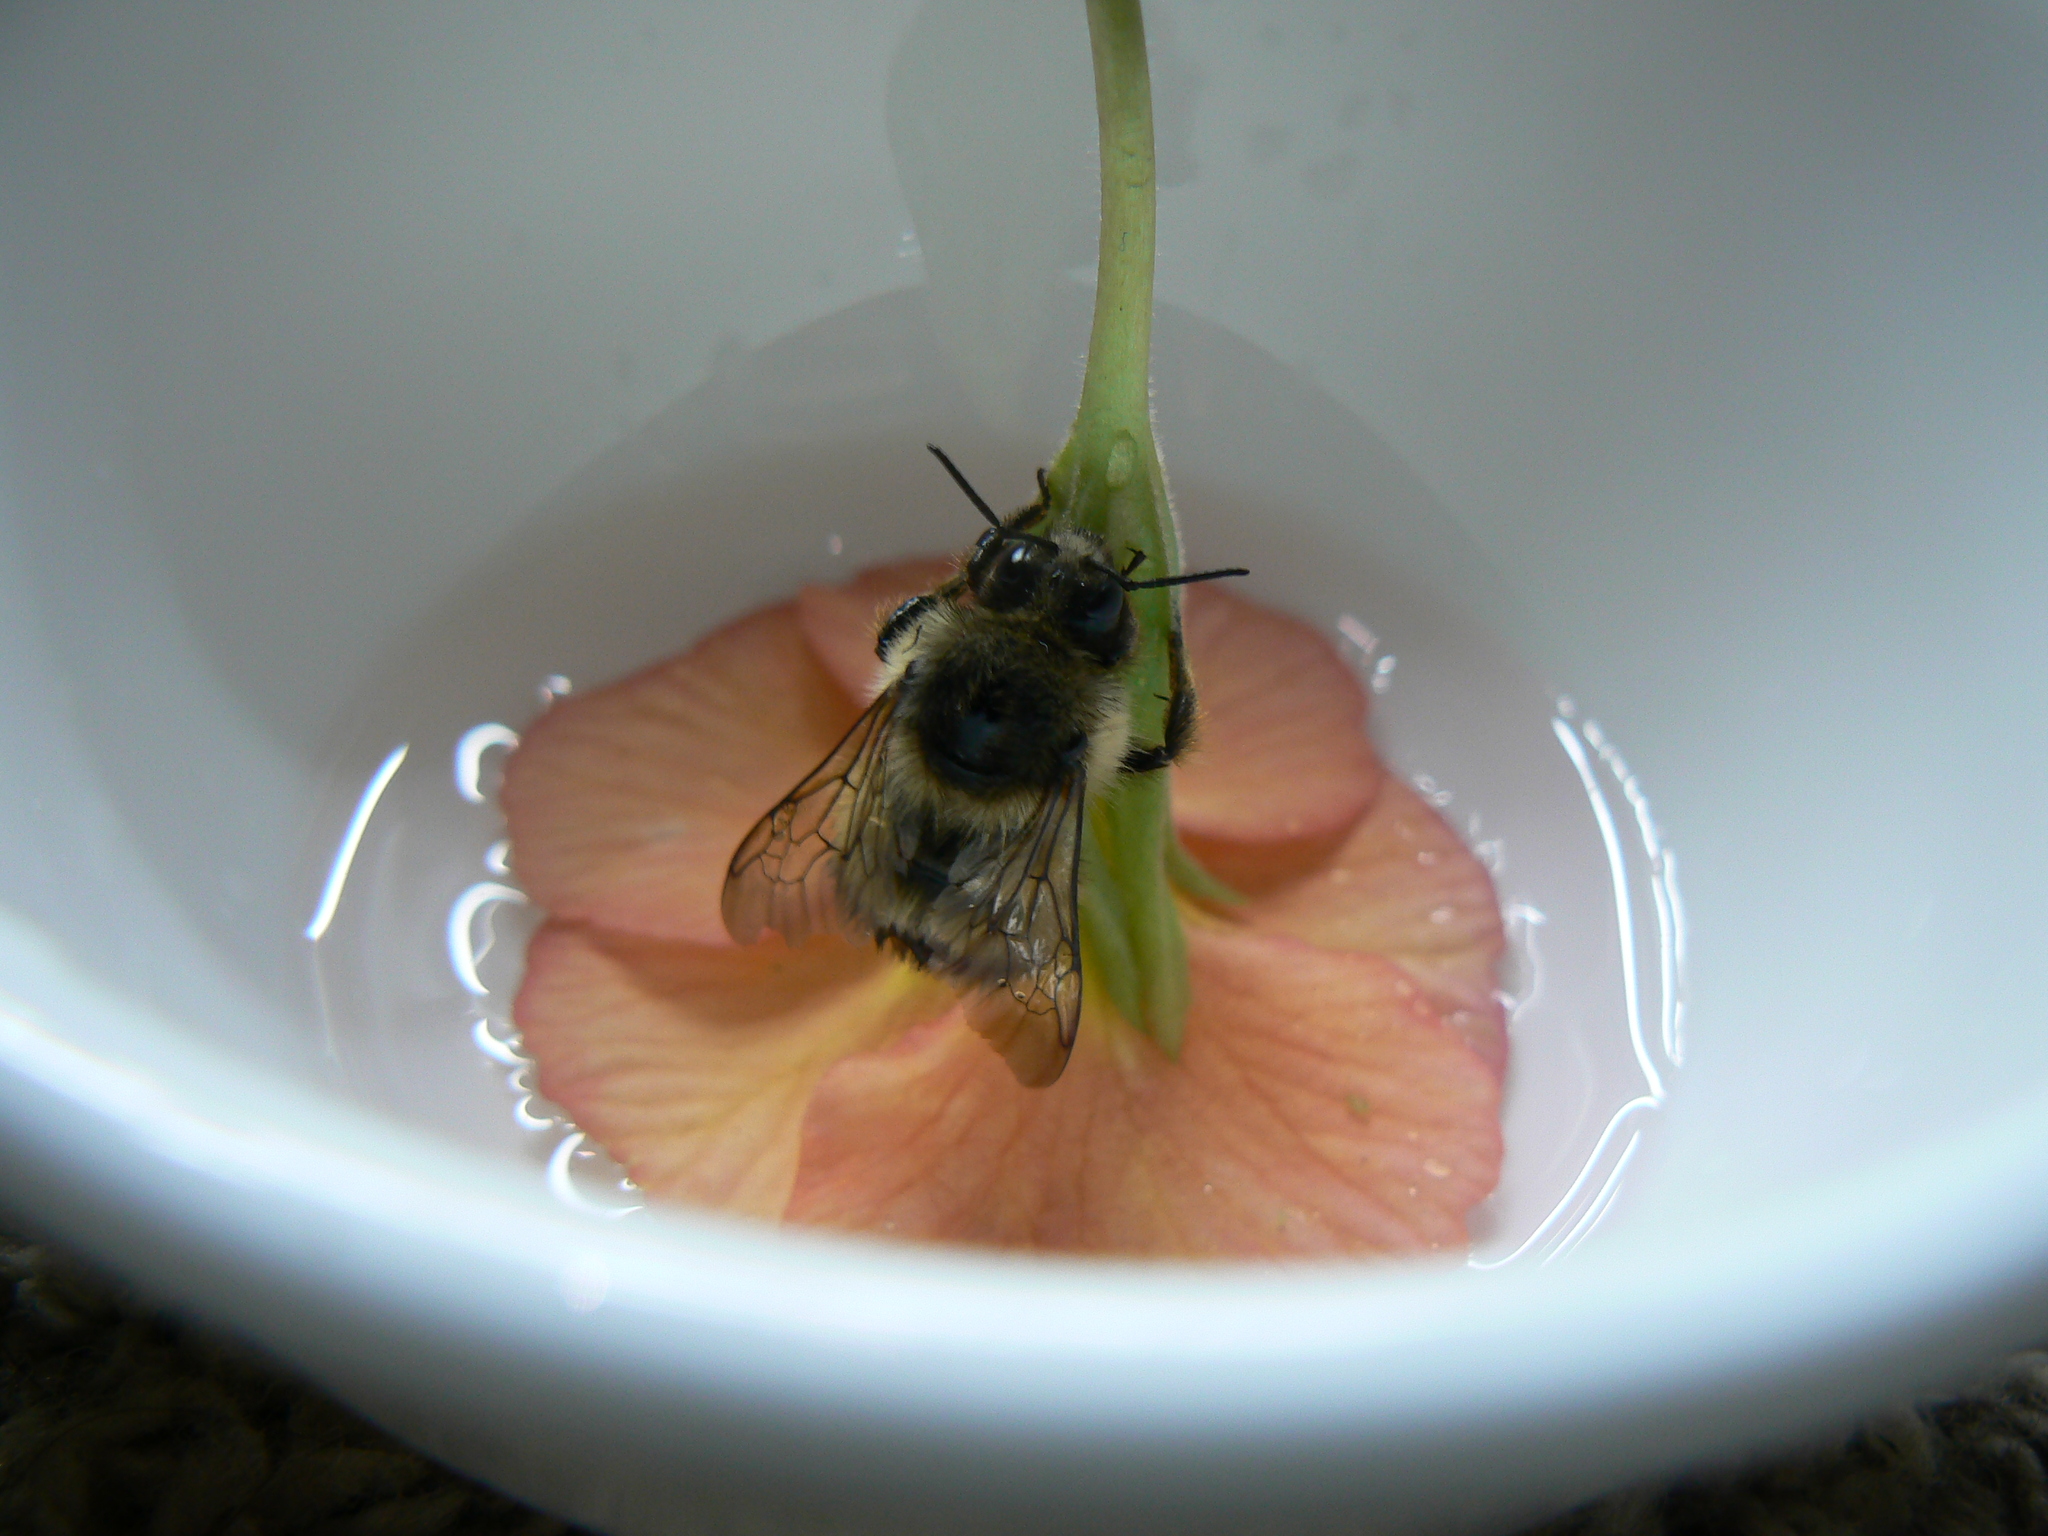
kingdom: Animalia
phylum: Arthropoda
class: Insecta
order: Hymenoptera
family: Apidae
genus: Bombus
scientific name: Bombus mixtus
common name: Fuzzy-horned bumble bee
